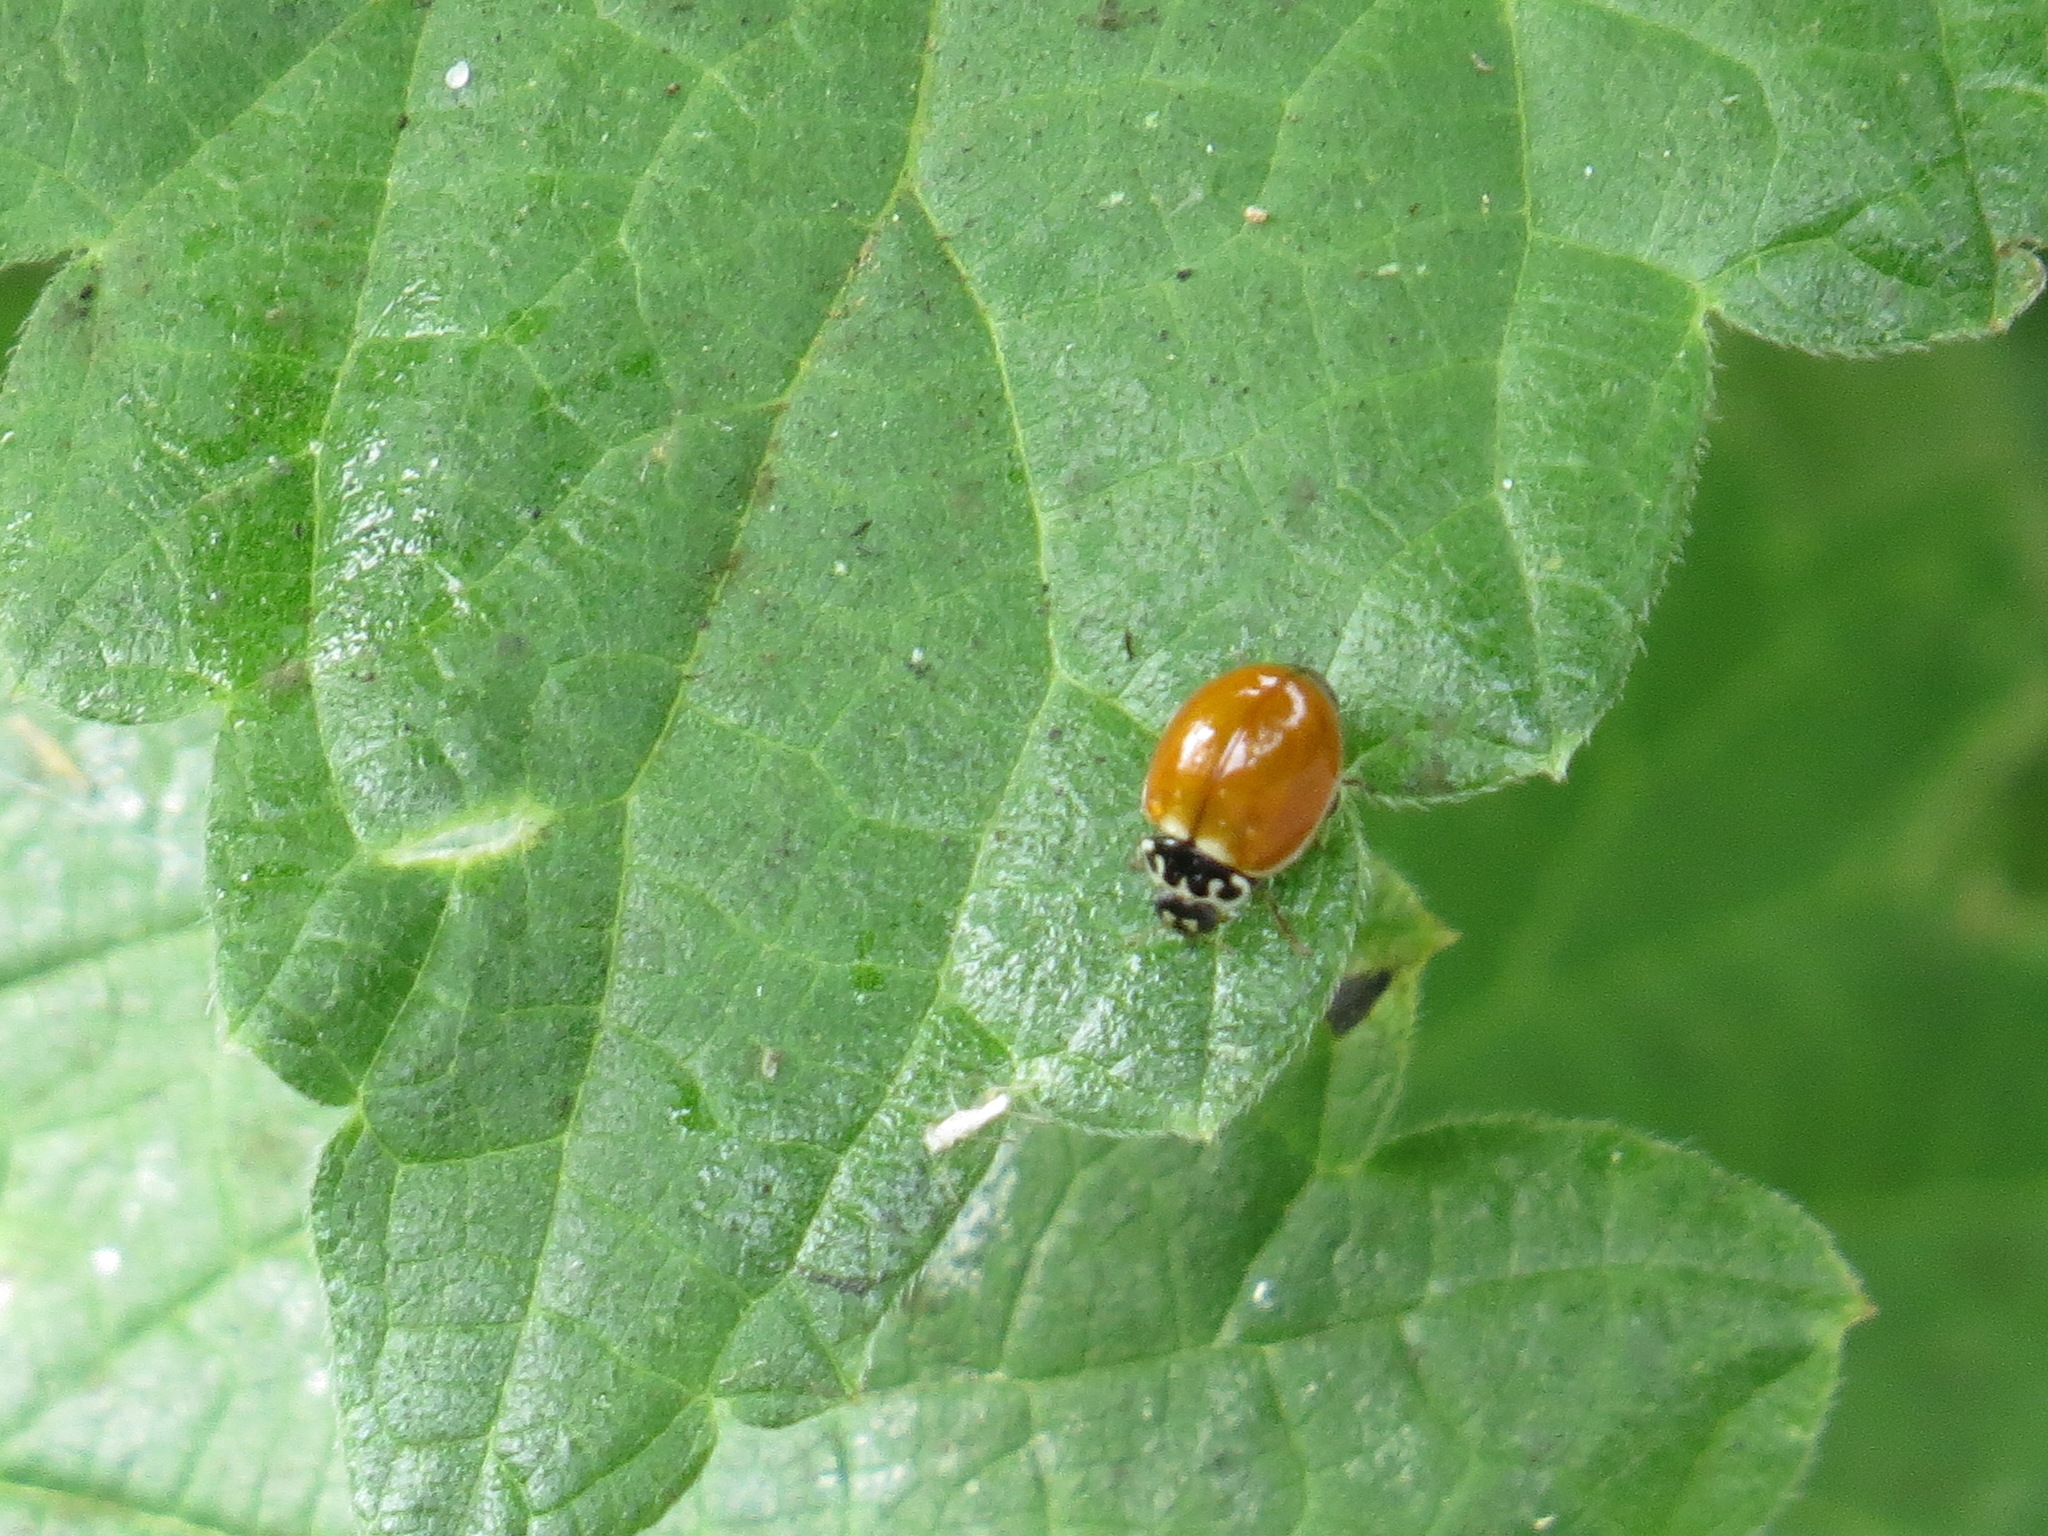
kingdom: Animalia
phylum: Arthropoda
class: Insecta
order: Coleoptera
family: Coccinellidae
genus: Cycloneda
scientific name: Cycloneda polita
